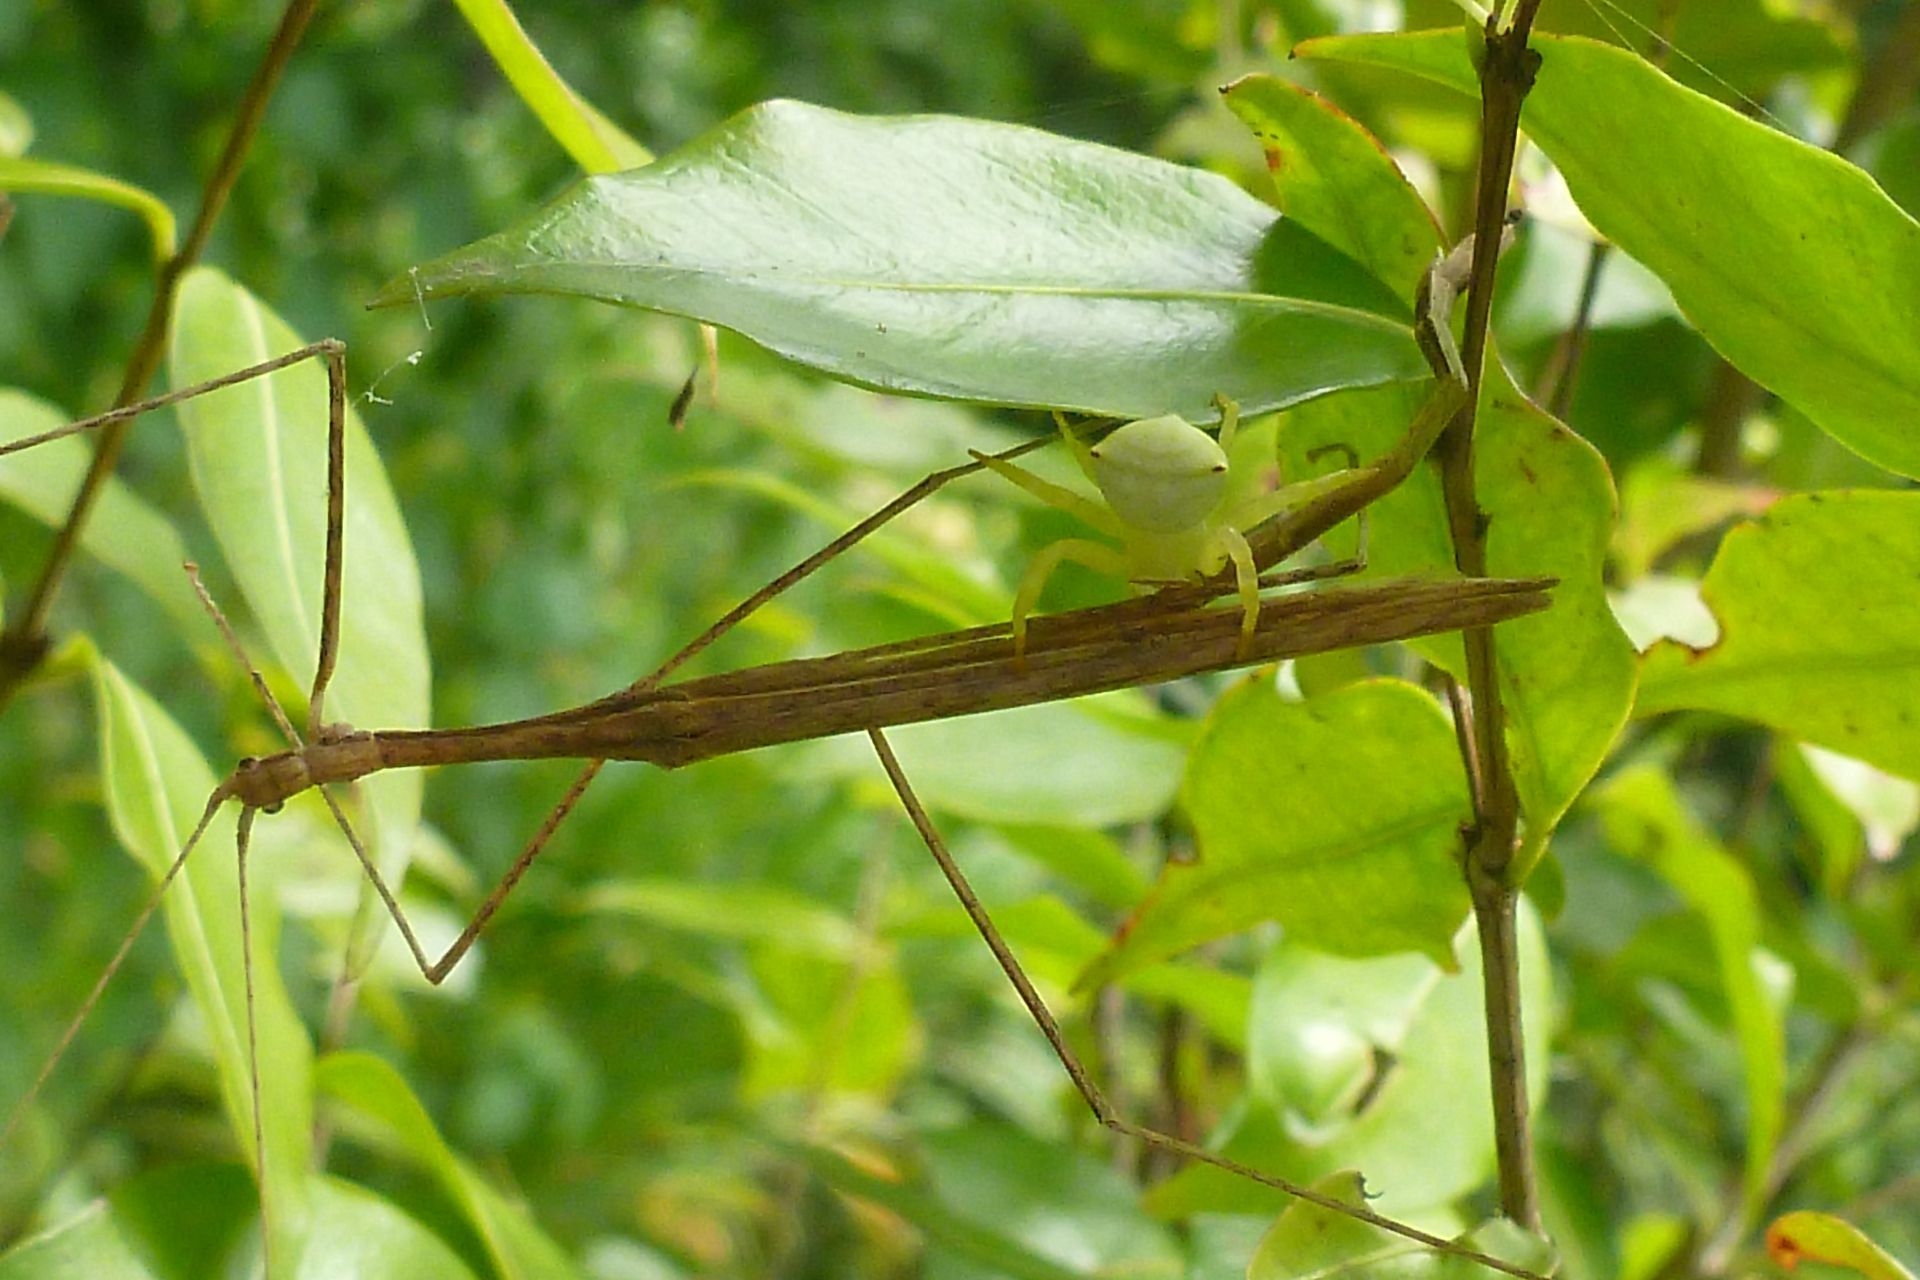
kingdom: Animalia
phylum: Arthropoda
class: Arachnida
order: Araneae
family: Thomisidae
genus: Thomisus
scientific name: Thomisus spectabilis
